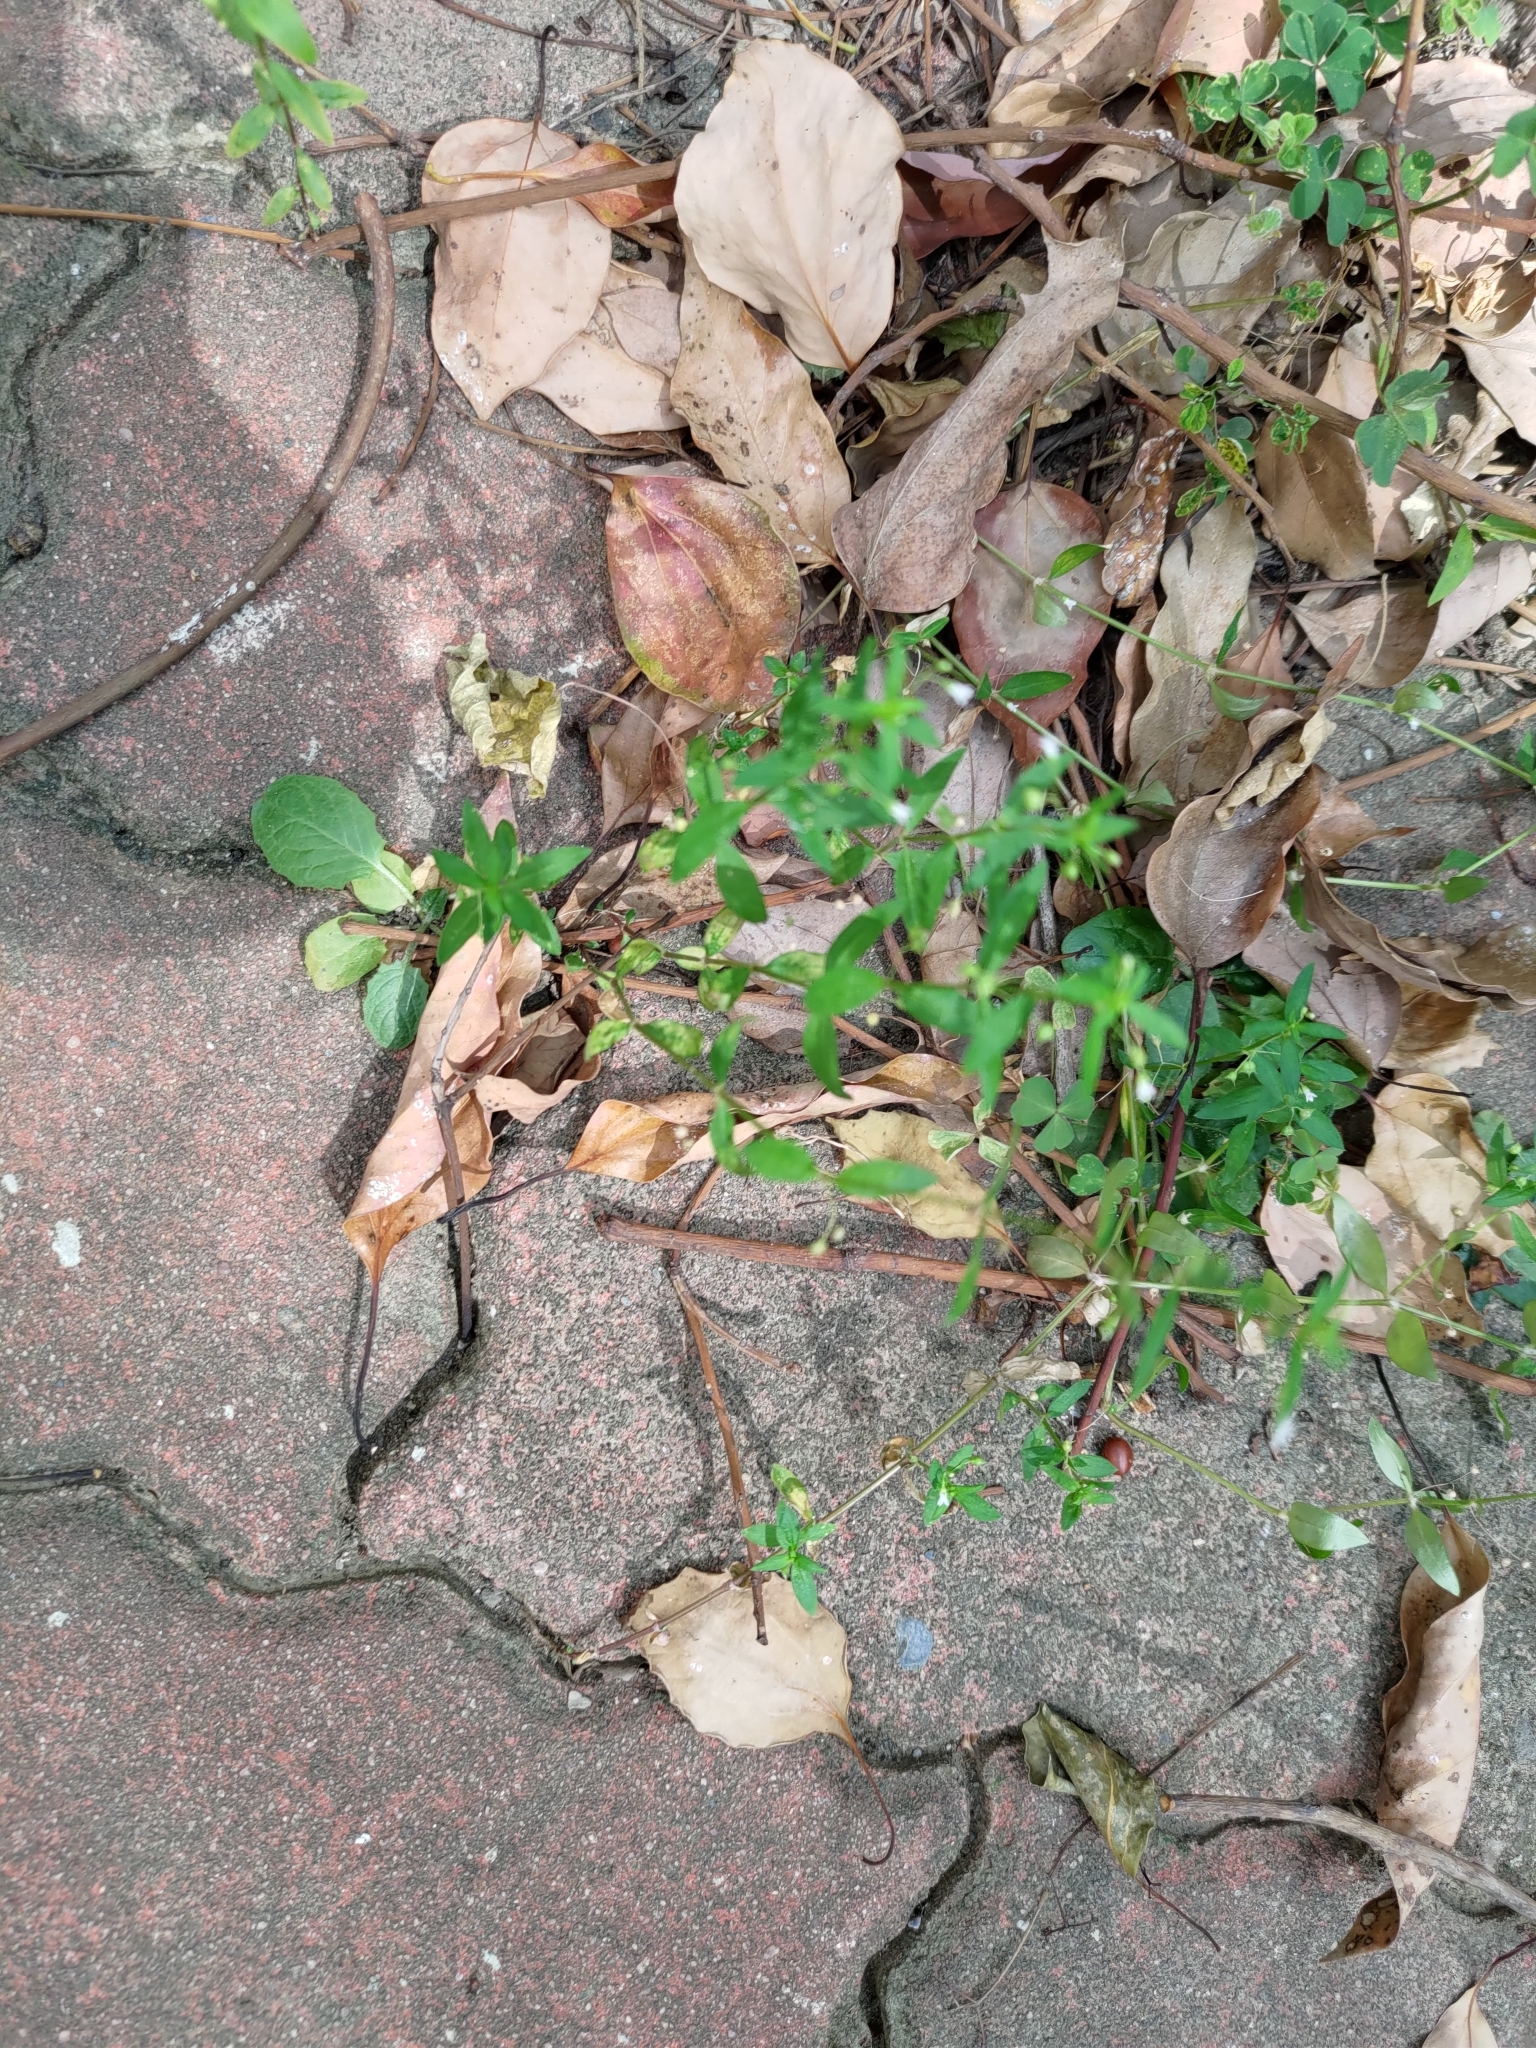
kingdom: Plantae
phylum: Tracheophyta
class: Magnoliopsida
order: Gentianales
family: Rubiaceae
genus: Oldenlandia
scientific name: Oldenlandia corymbosa
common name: Flat-top mille graines
